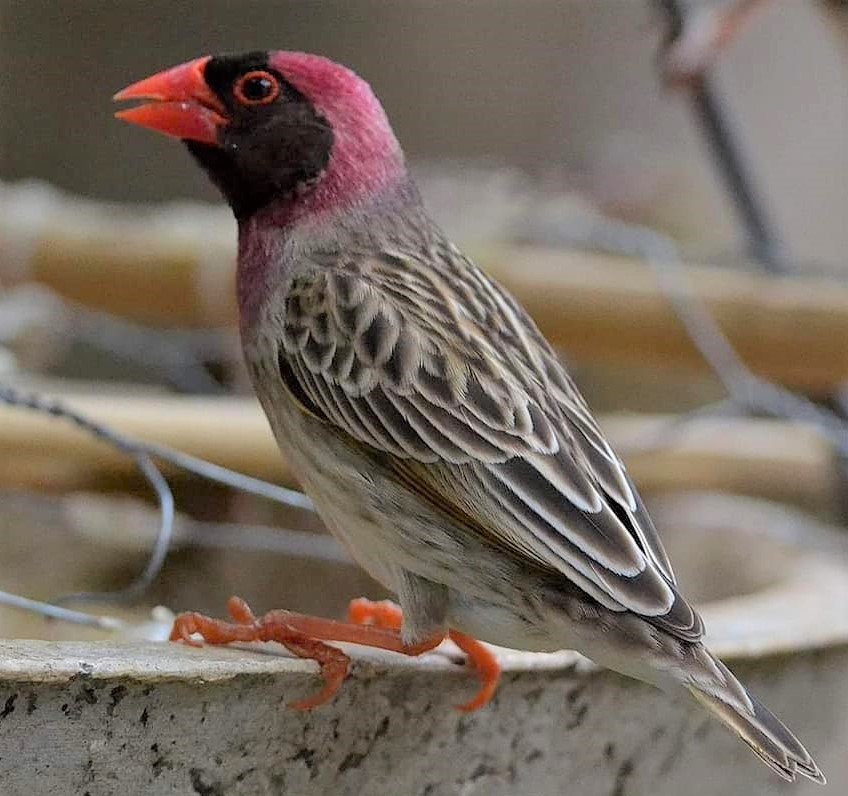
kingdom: Animalia
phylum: Chordata
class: Aves
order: Passeriformes
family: Ploceidae
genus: Quelea
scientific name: Quelea quelea
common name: Red-billed quelea
